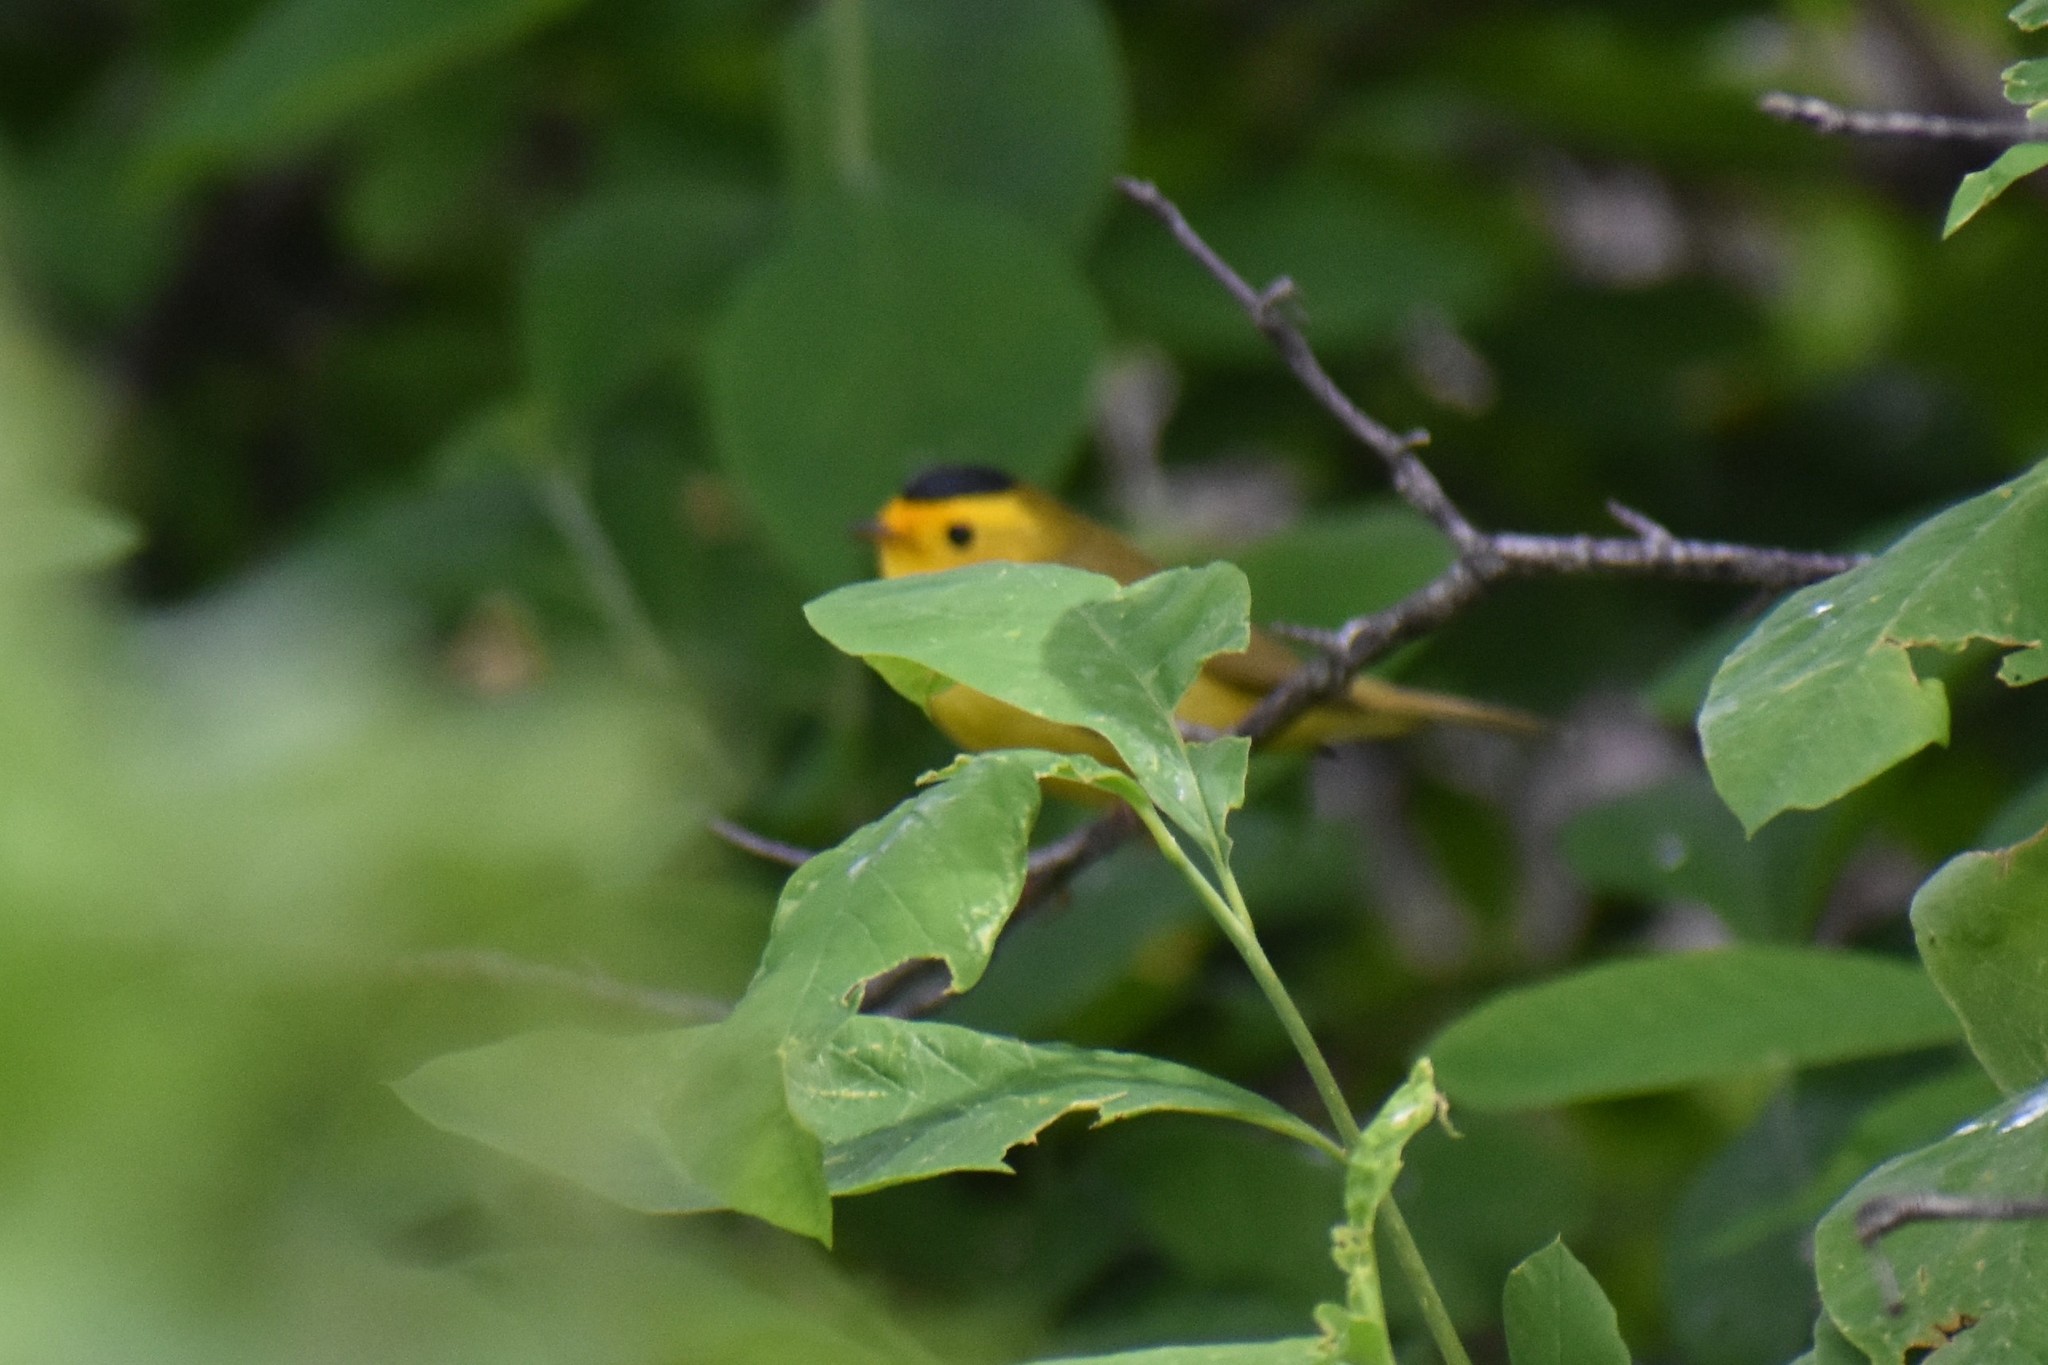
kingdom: Animalia
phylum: Chordata
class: Aves
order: Passeriformes
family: Parulidae
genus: Cardellina
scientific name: Cardellina pusilla
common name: Wilson's warbler
